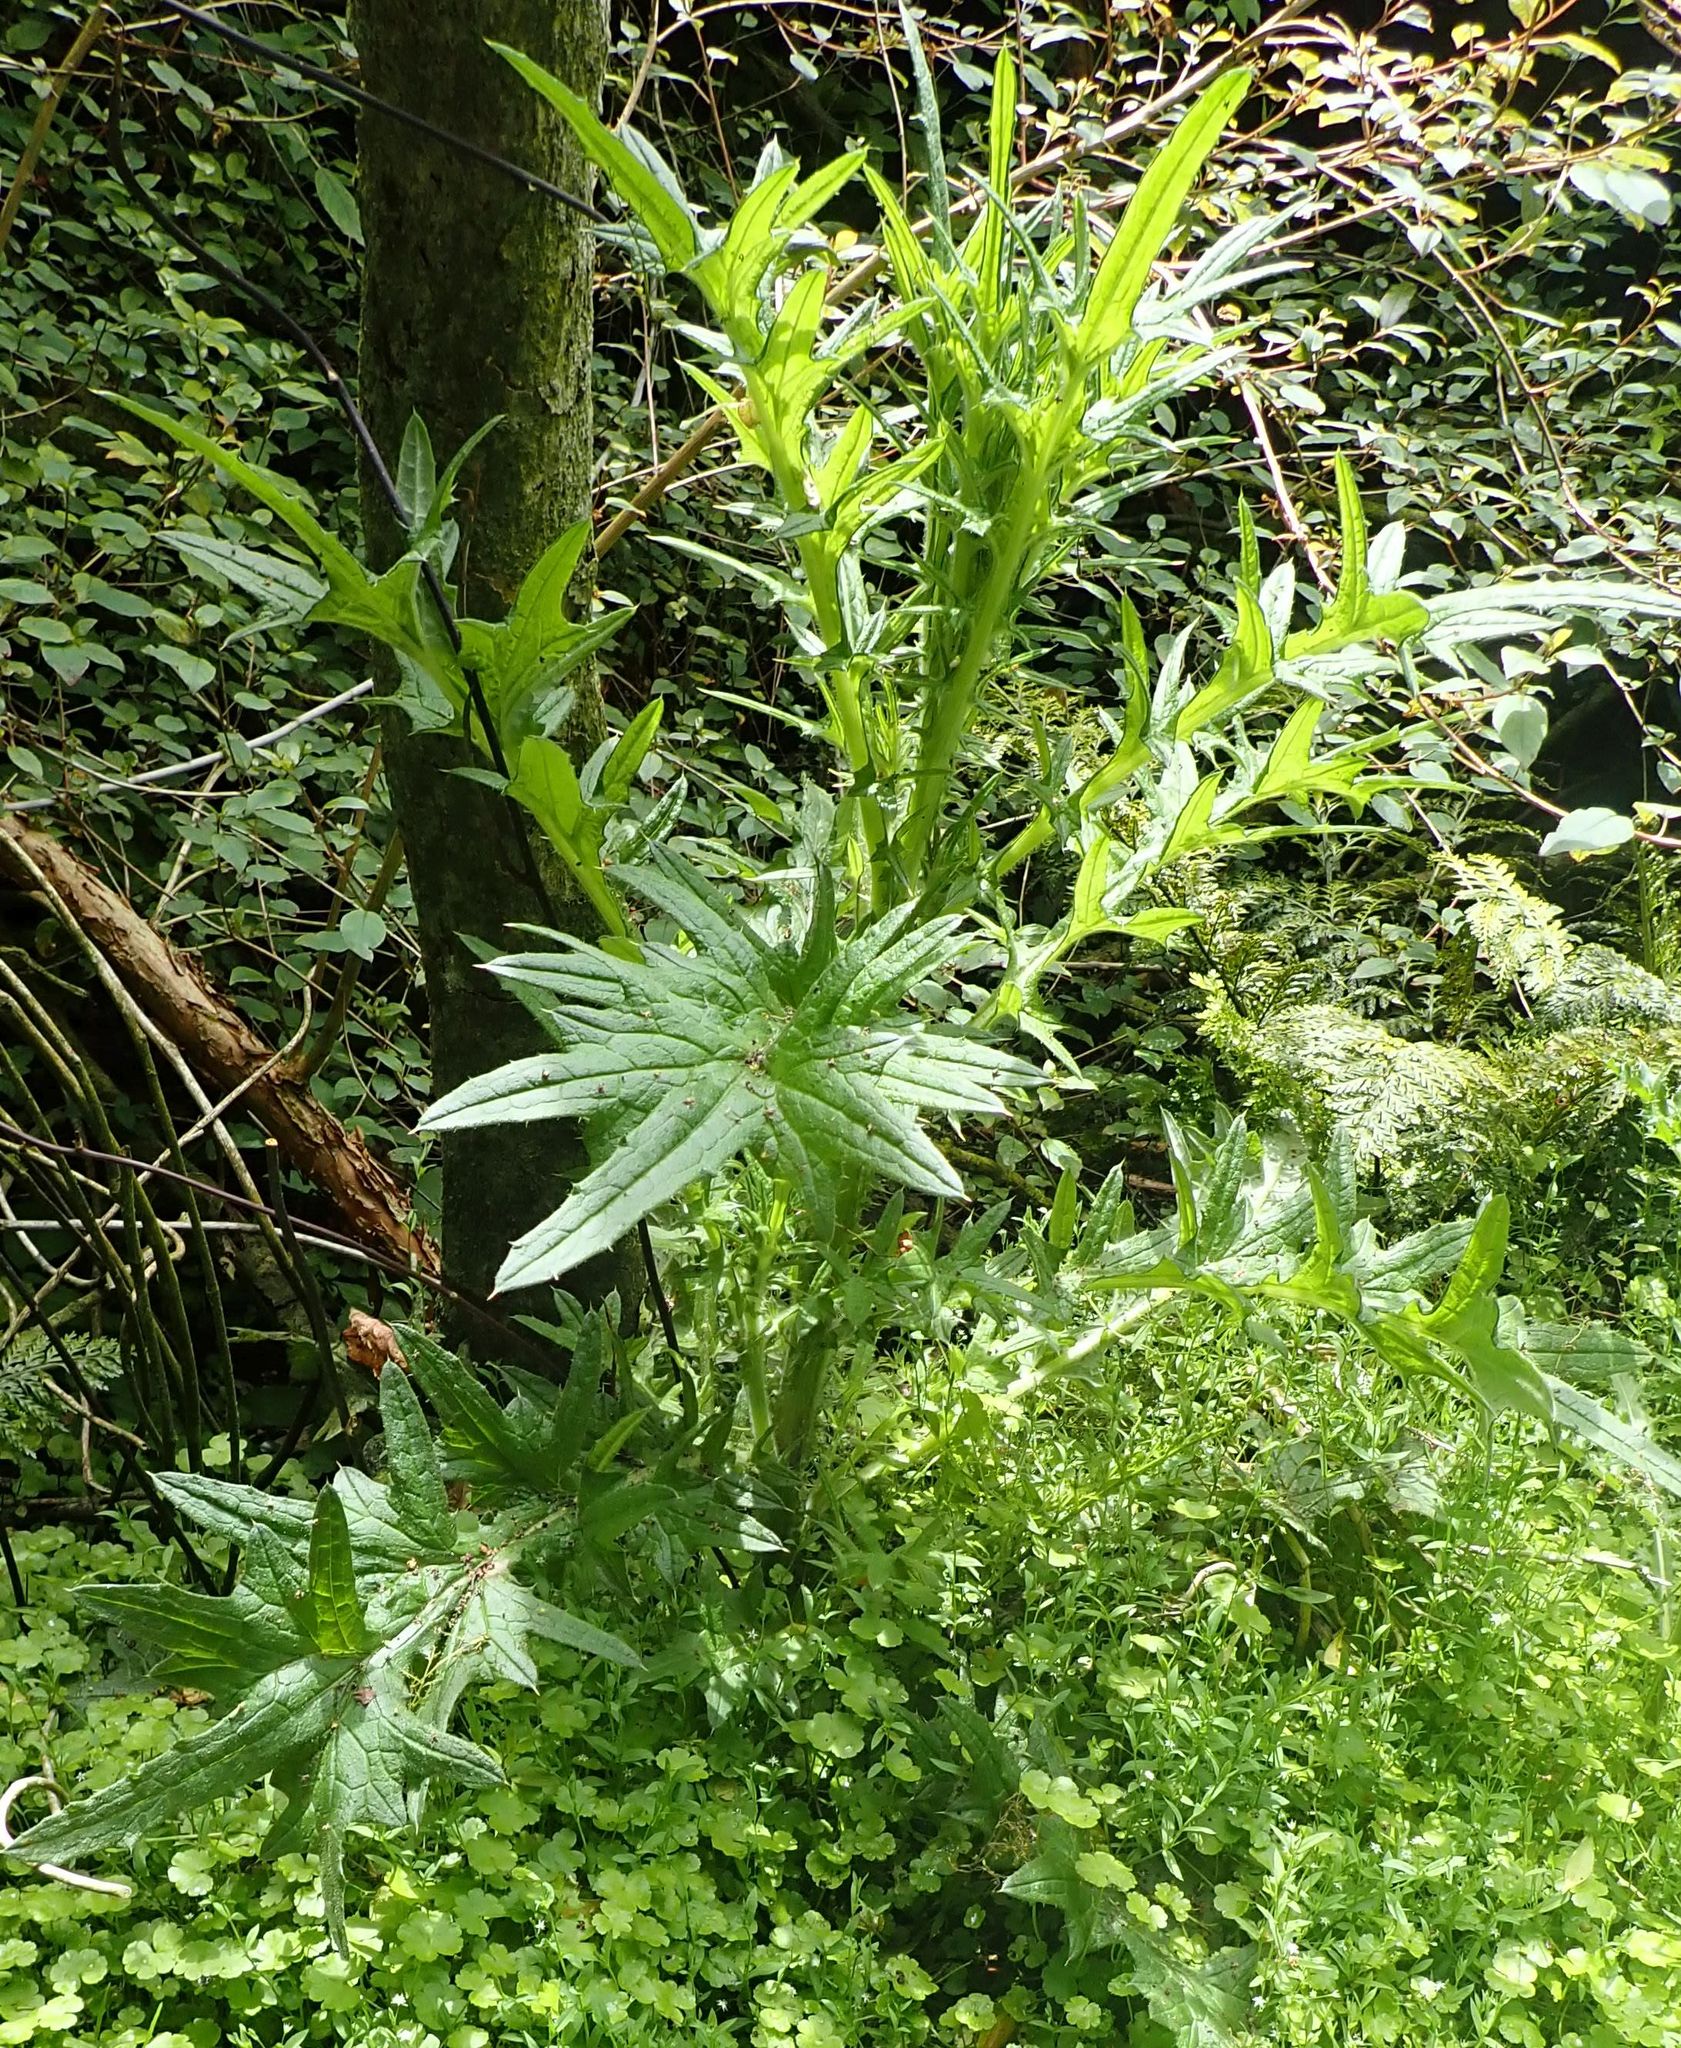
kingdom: Plantae
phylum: Tracheophyta
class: Magnoliopsida
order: Asterales
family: Asteraceae
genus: Cirsium
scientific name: Cirsium vulgare
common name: Bull thistle
